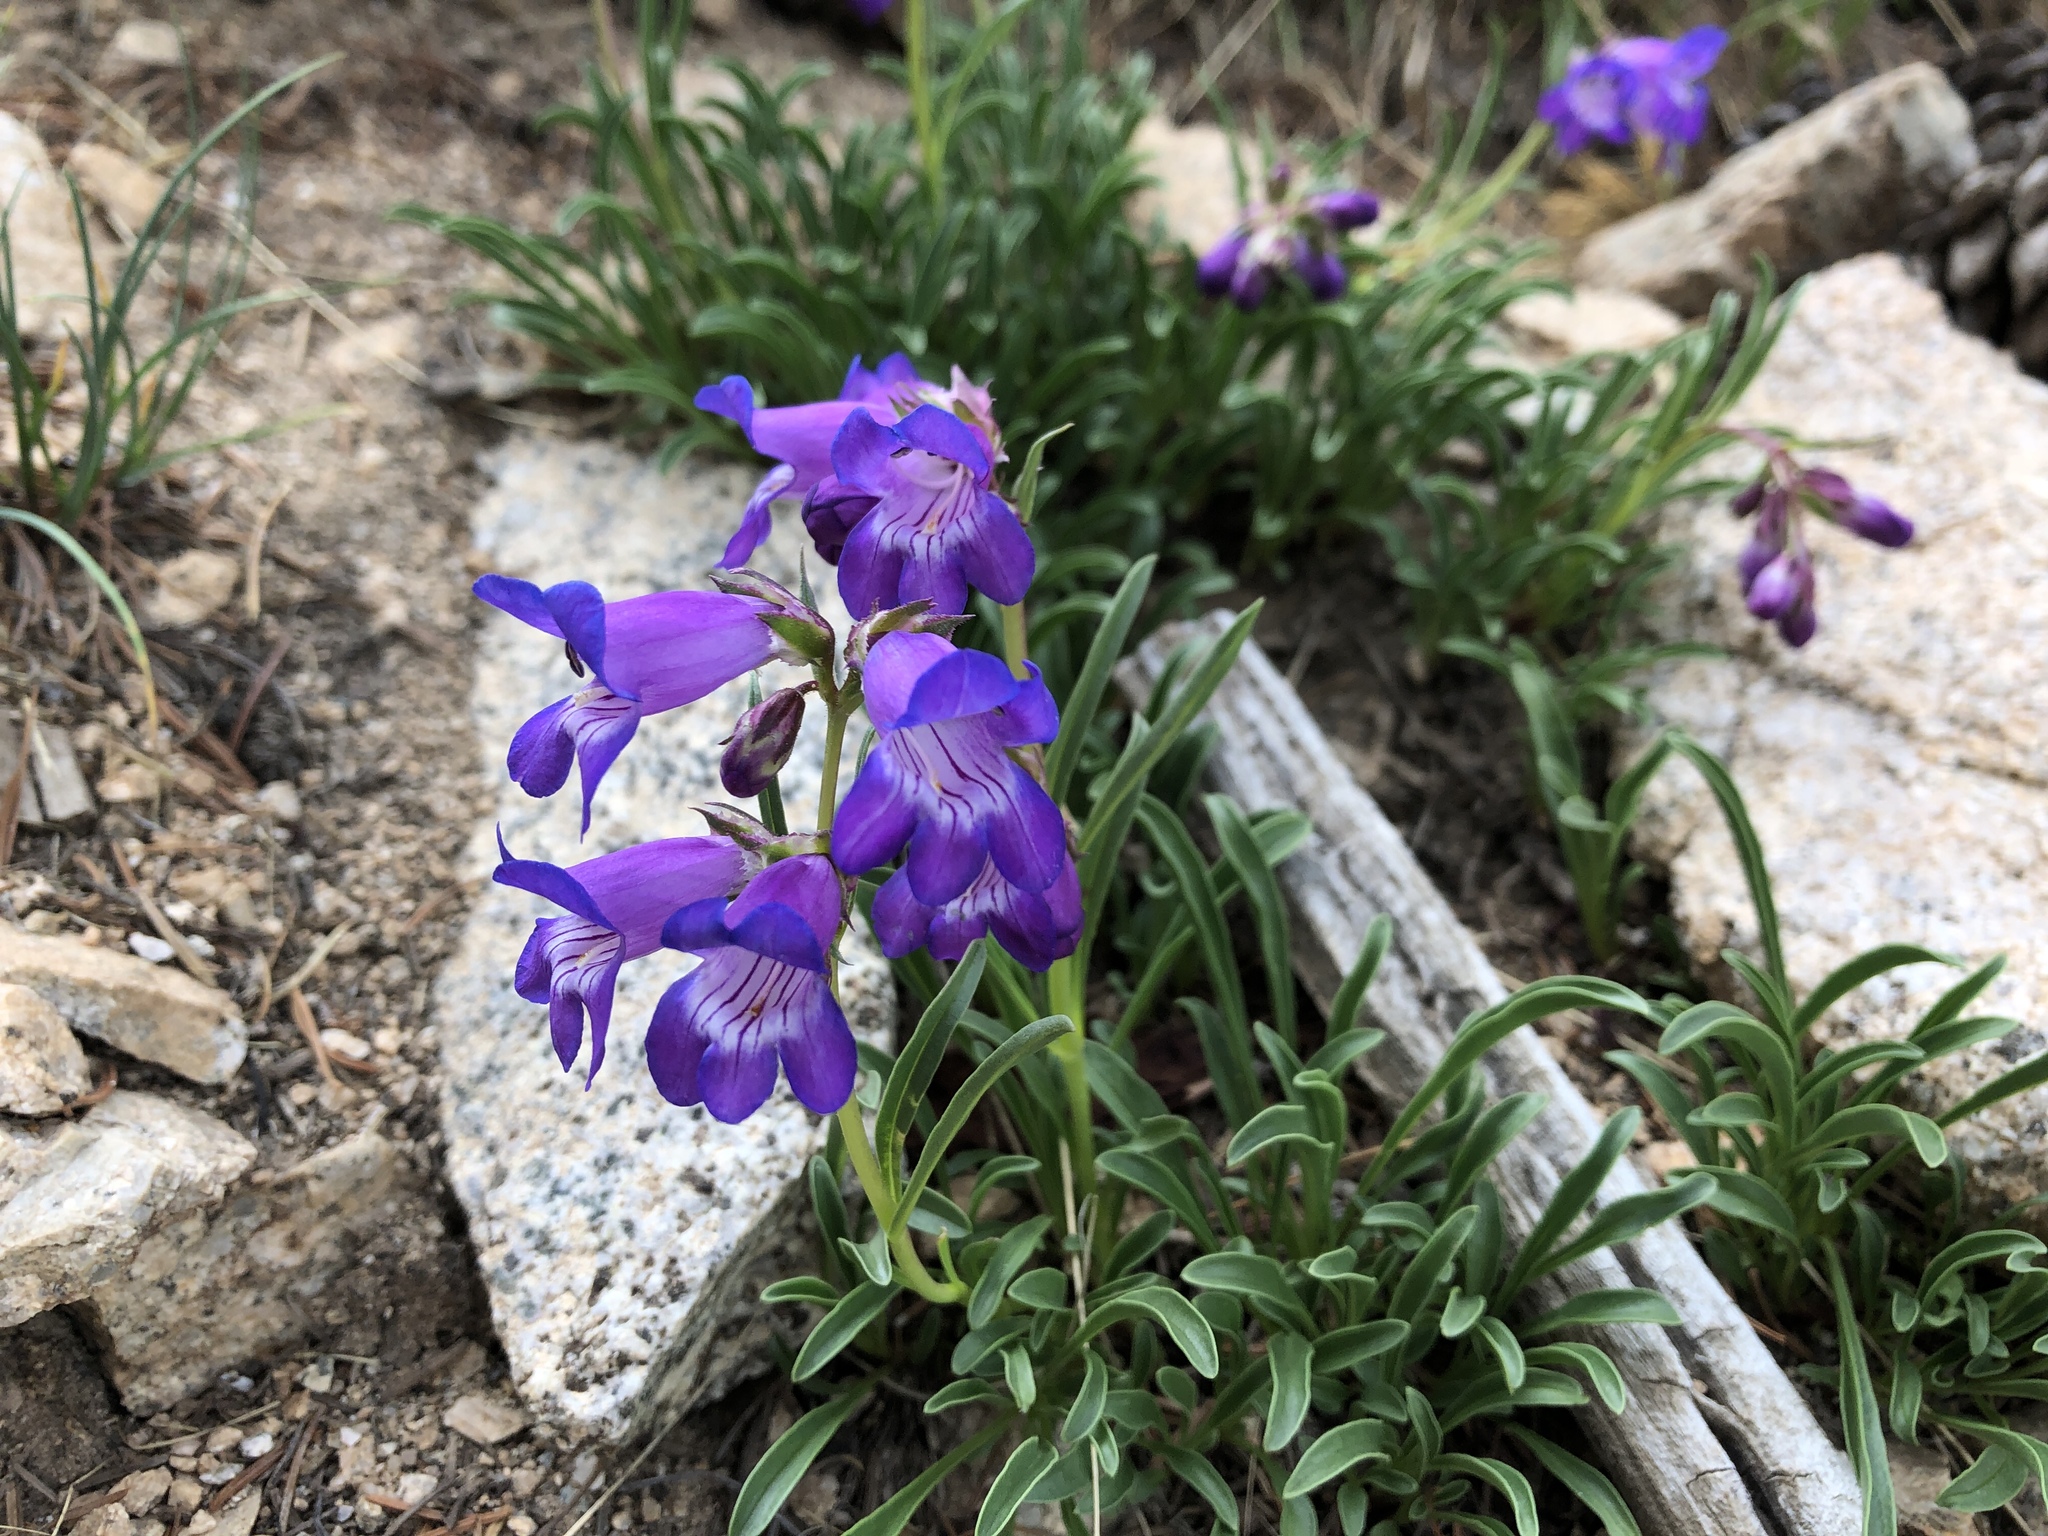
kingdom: Plantae
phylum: Tracheophyta
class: Magnoliopsida
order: Lamiales
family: Plantaginaceae
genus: Penstemon
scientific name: Penstemon hallii
